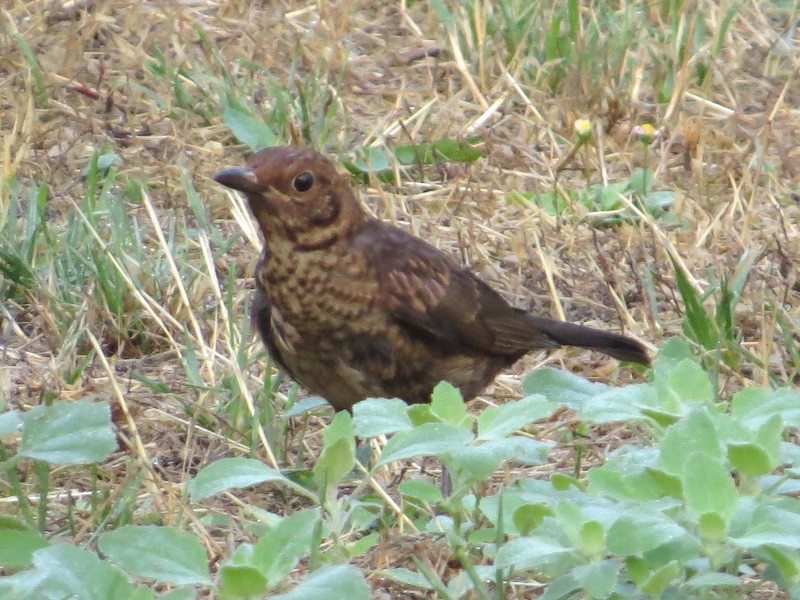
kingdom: Animalia
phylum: Chordata
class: Aves
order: Passeriformes
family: Turdidae
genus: Turdus
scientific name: Turdus merula
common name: Common blackbird
